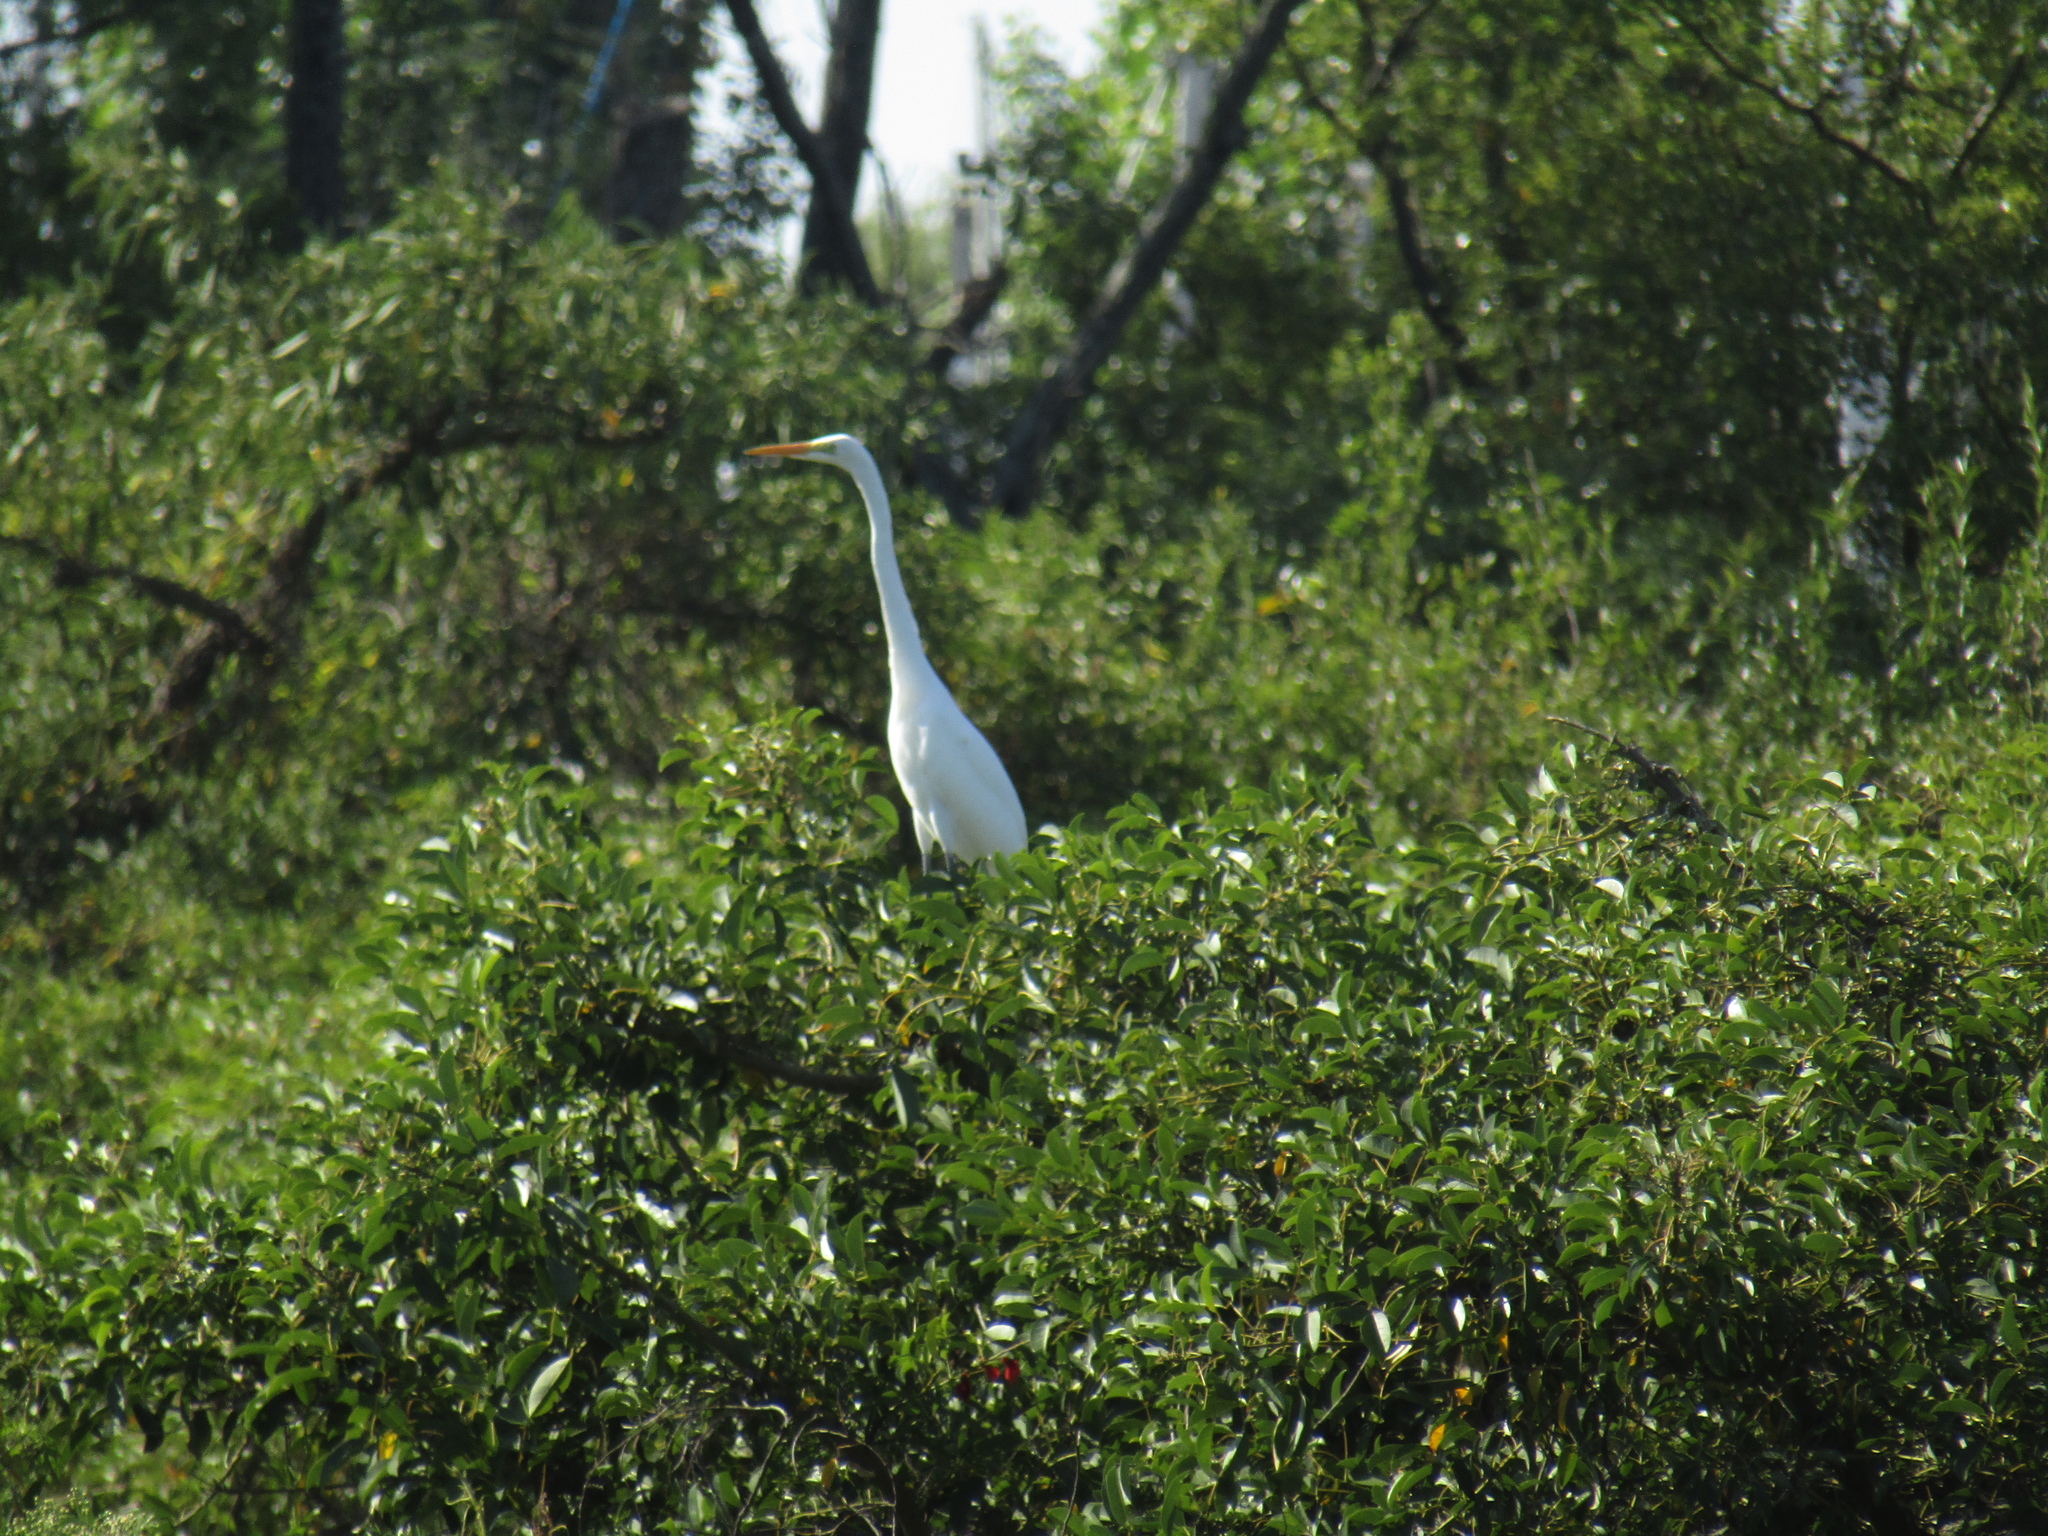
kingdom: Animalia
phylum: Chordata
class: Aves
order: Pelecaniformes
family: Ardeidae
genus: Ardea
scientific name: Ardea alba
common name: Great egret
